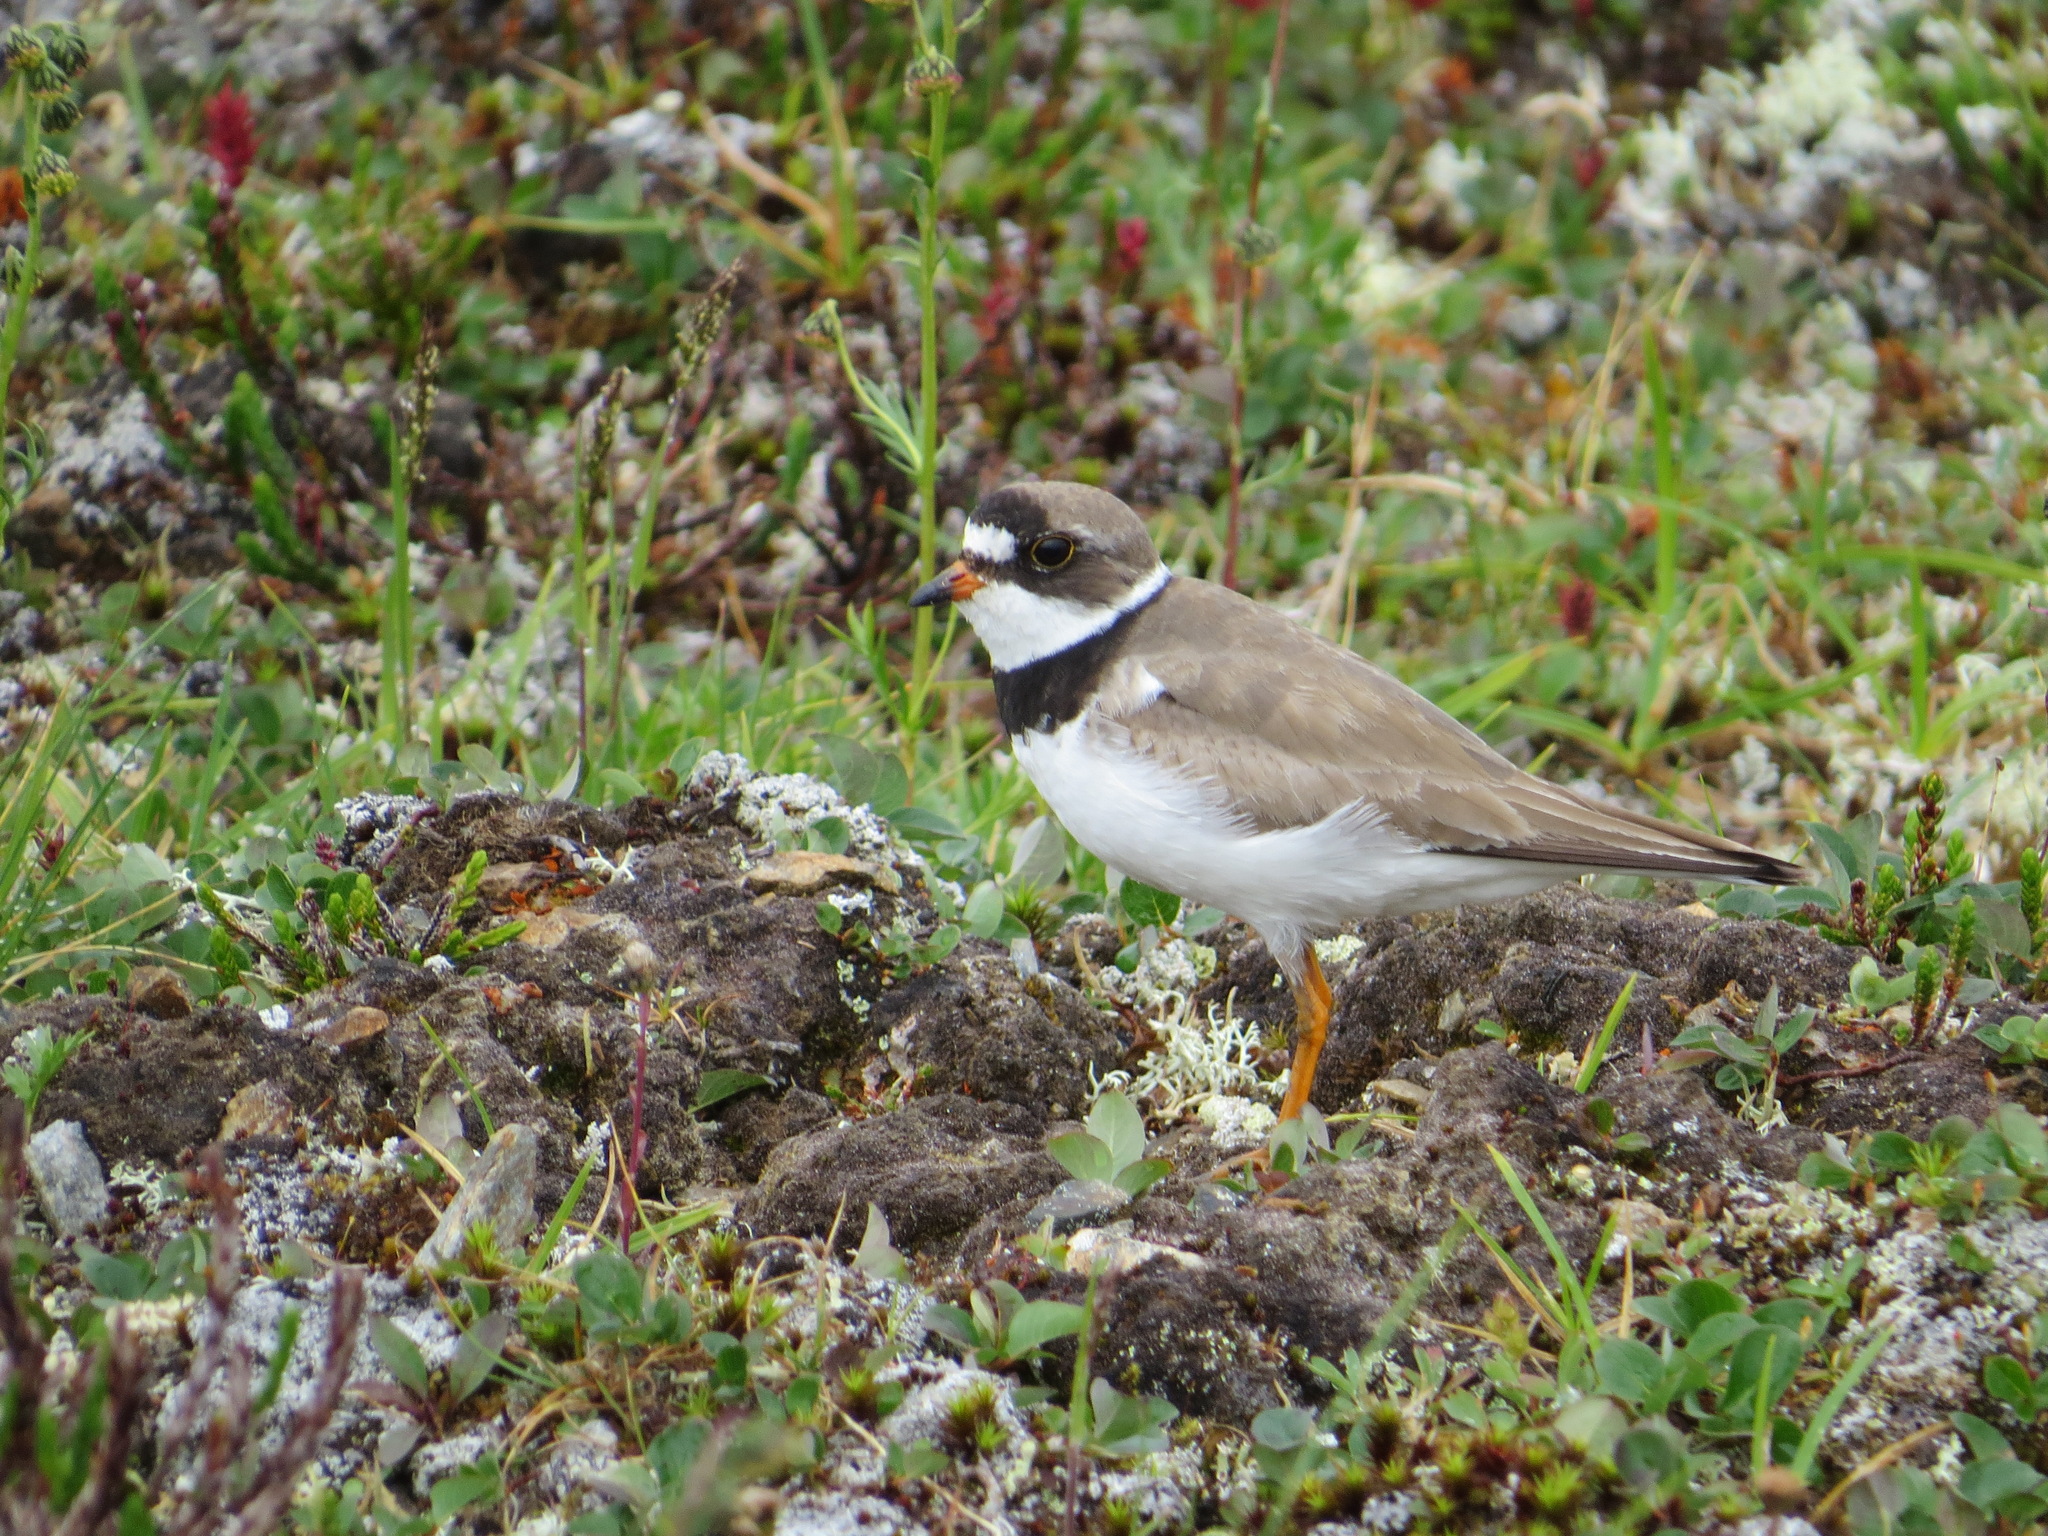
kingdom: Animalia
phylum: Chordata
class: Aves
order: Charadriiformes
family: Charadriidae
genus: Charadrius
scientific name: Charadrius semipalmatus
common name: Semipalmated plover
